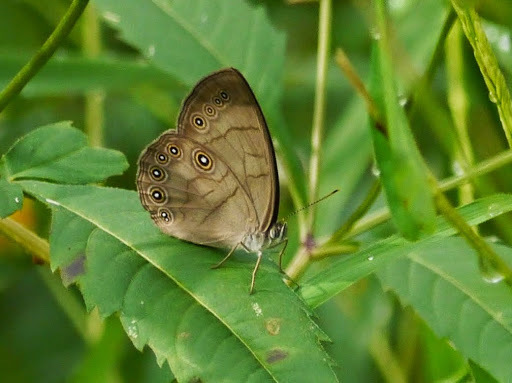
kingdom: Animalia
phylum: Arthropoda
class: Insecta
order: Lepidoptera
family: Nymphalidae
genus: Lethe
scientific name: Lethe eurydice
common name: Eyed brown
